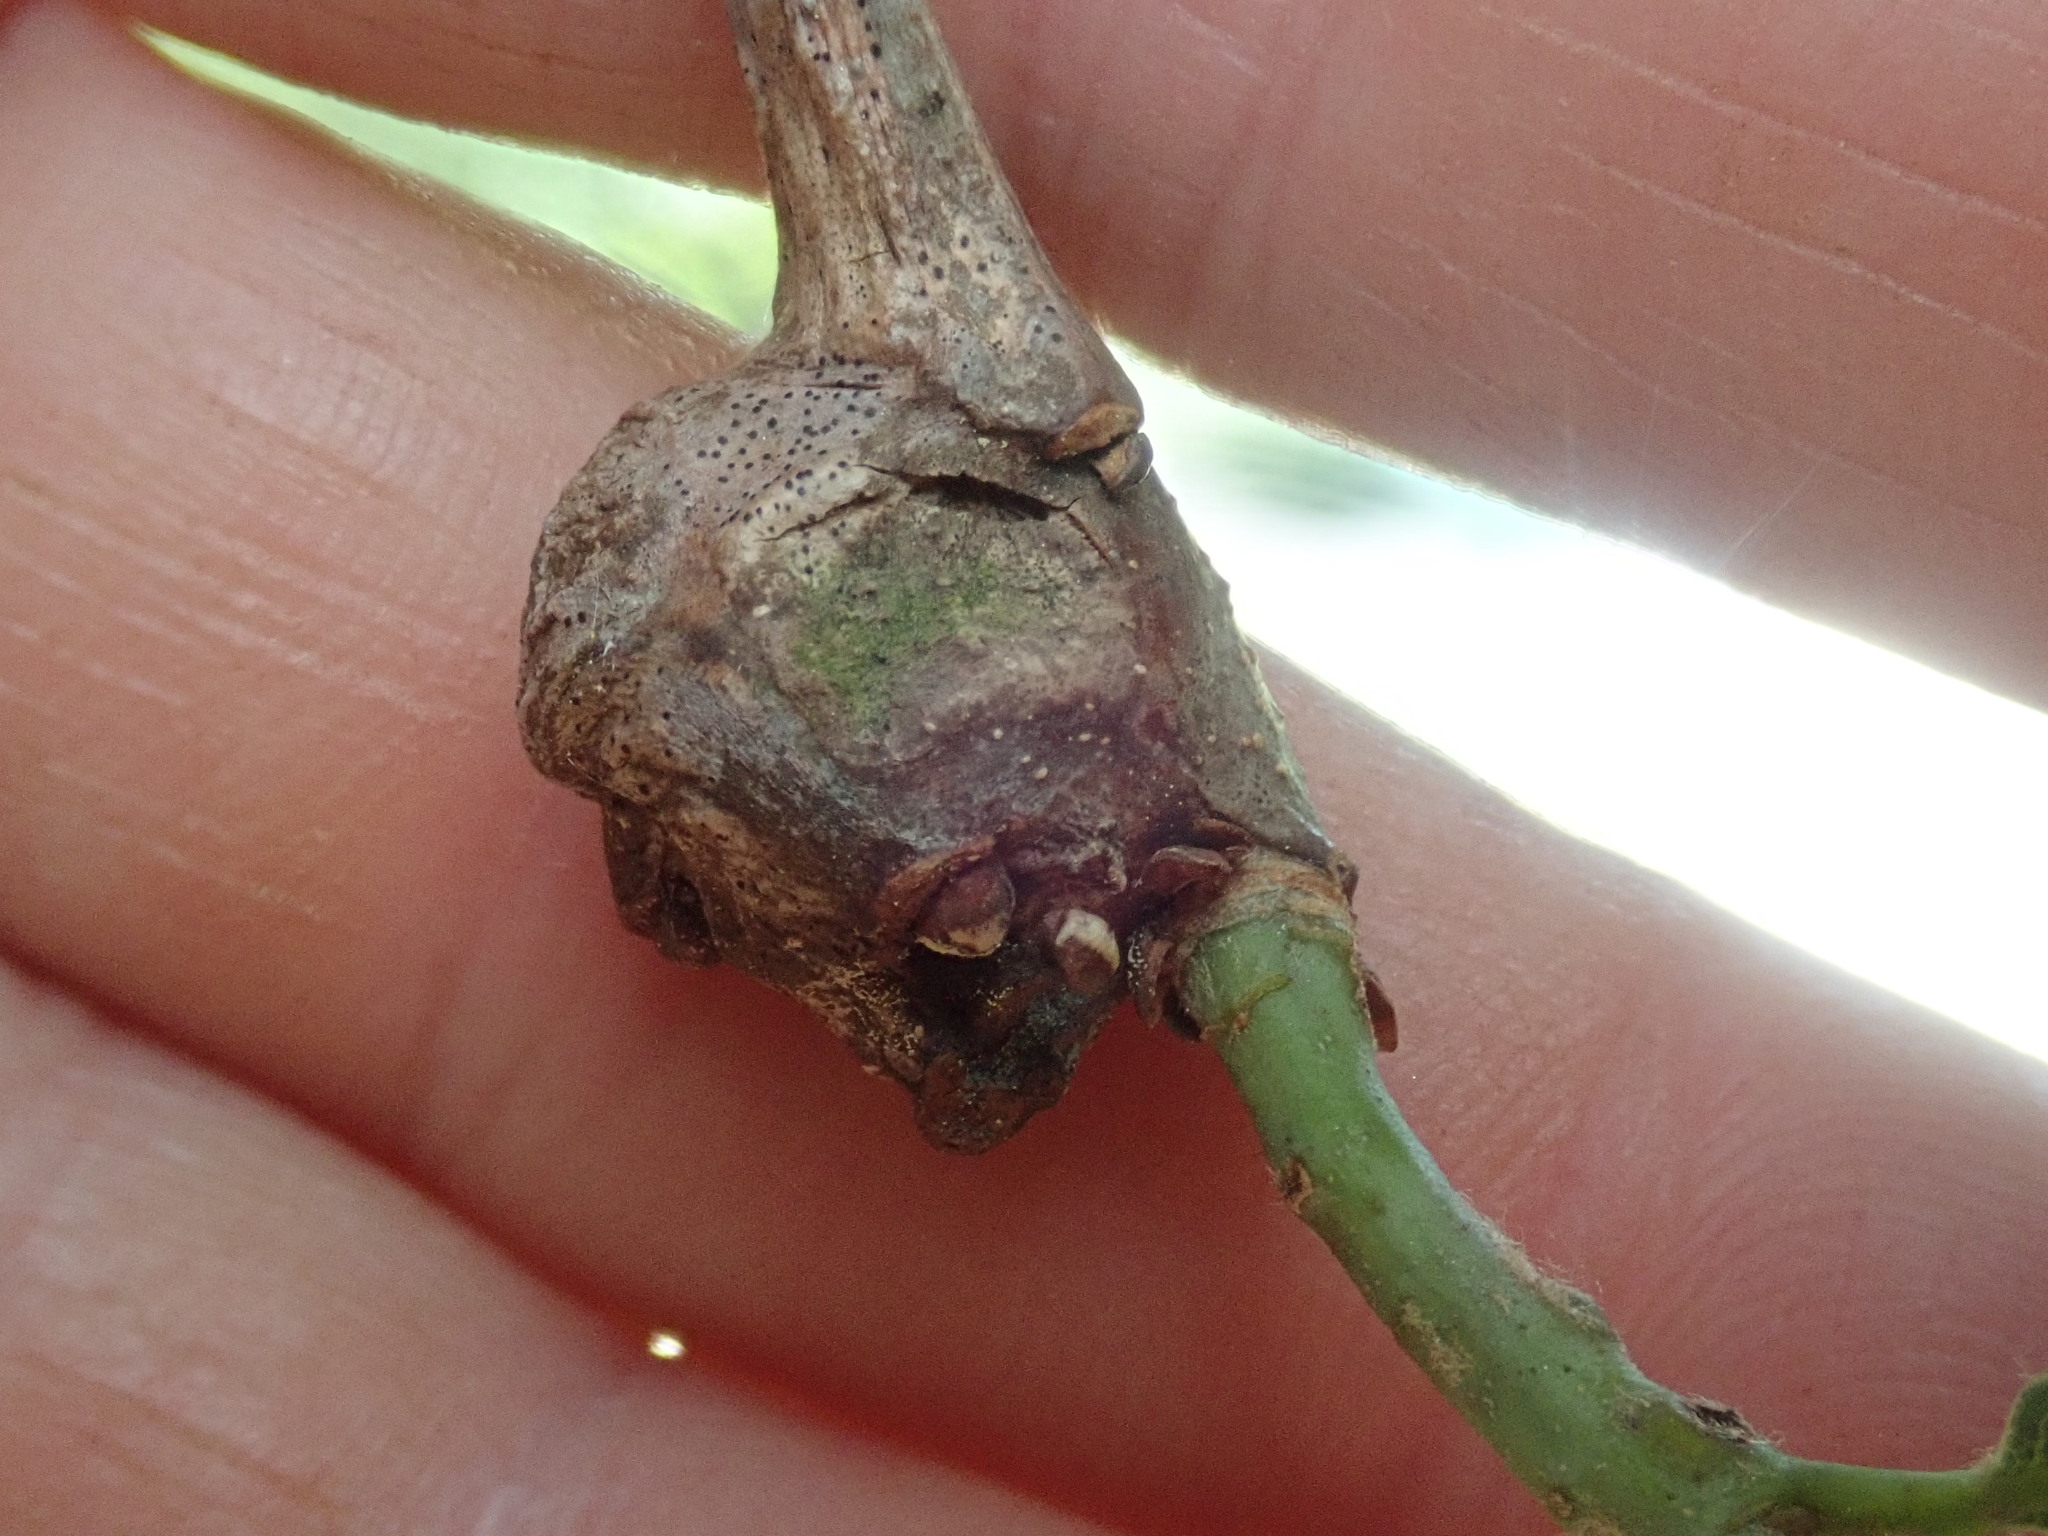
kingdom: Animalia
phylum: Arthropoda
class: Insecta
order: Hymenoptera
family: Cynipidae
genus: Callirhytis
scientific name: Callirhytis clavula
